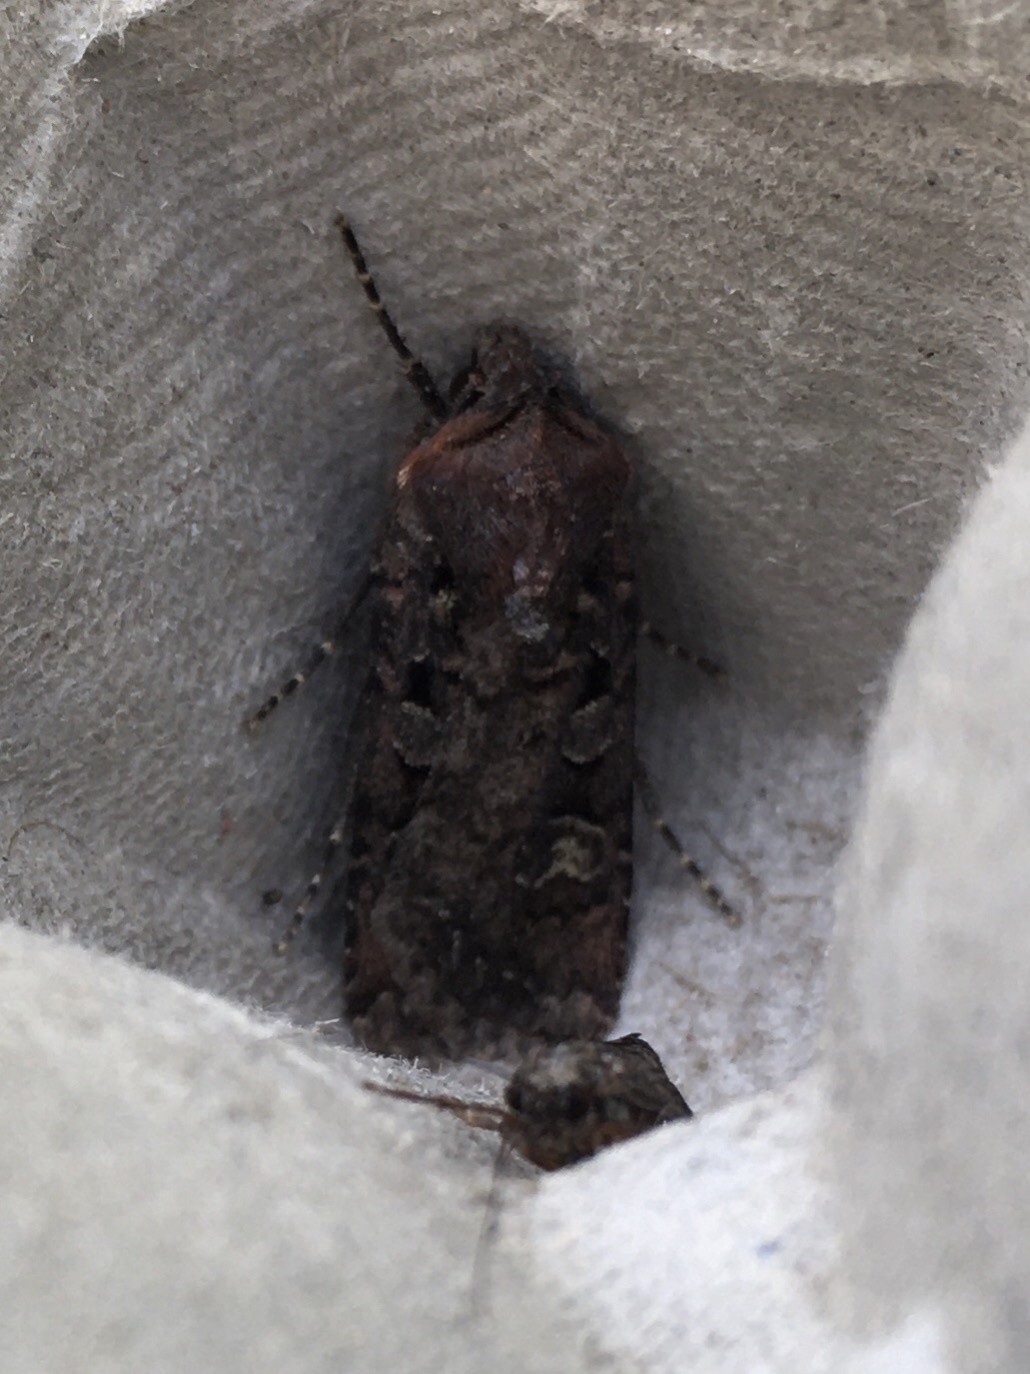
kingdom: Animalia
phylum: Arthropoda
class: Insecta
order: Lepidoptera
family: Noctuidae
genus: Euxoa
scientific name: Euxoa tessellata
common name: Striped cutworm
